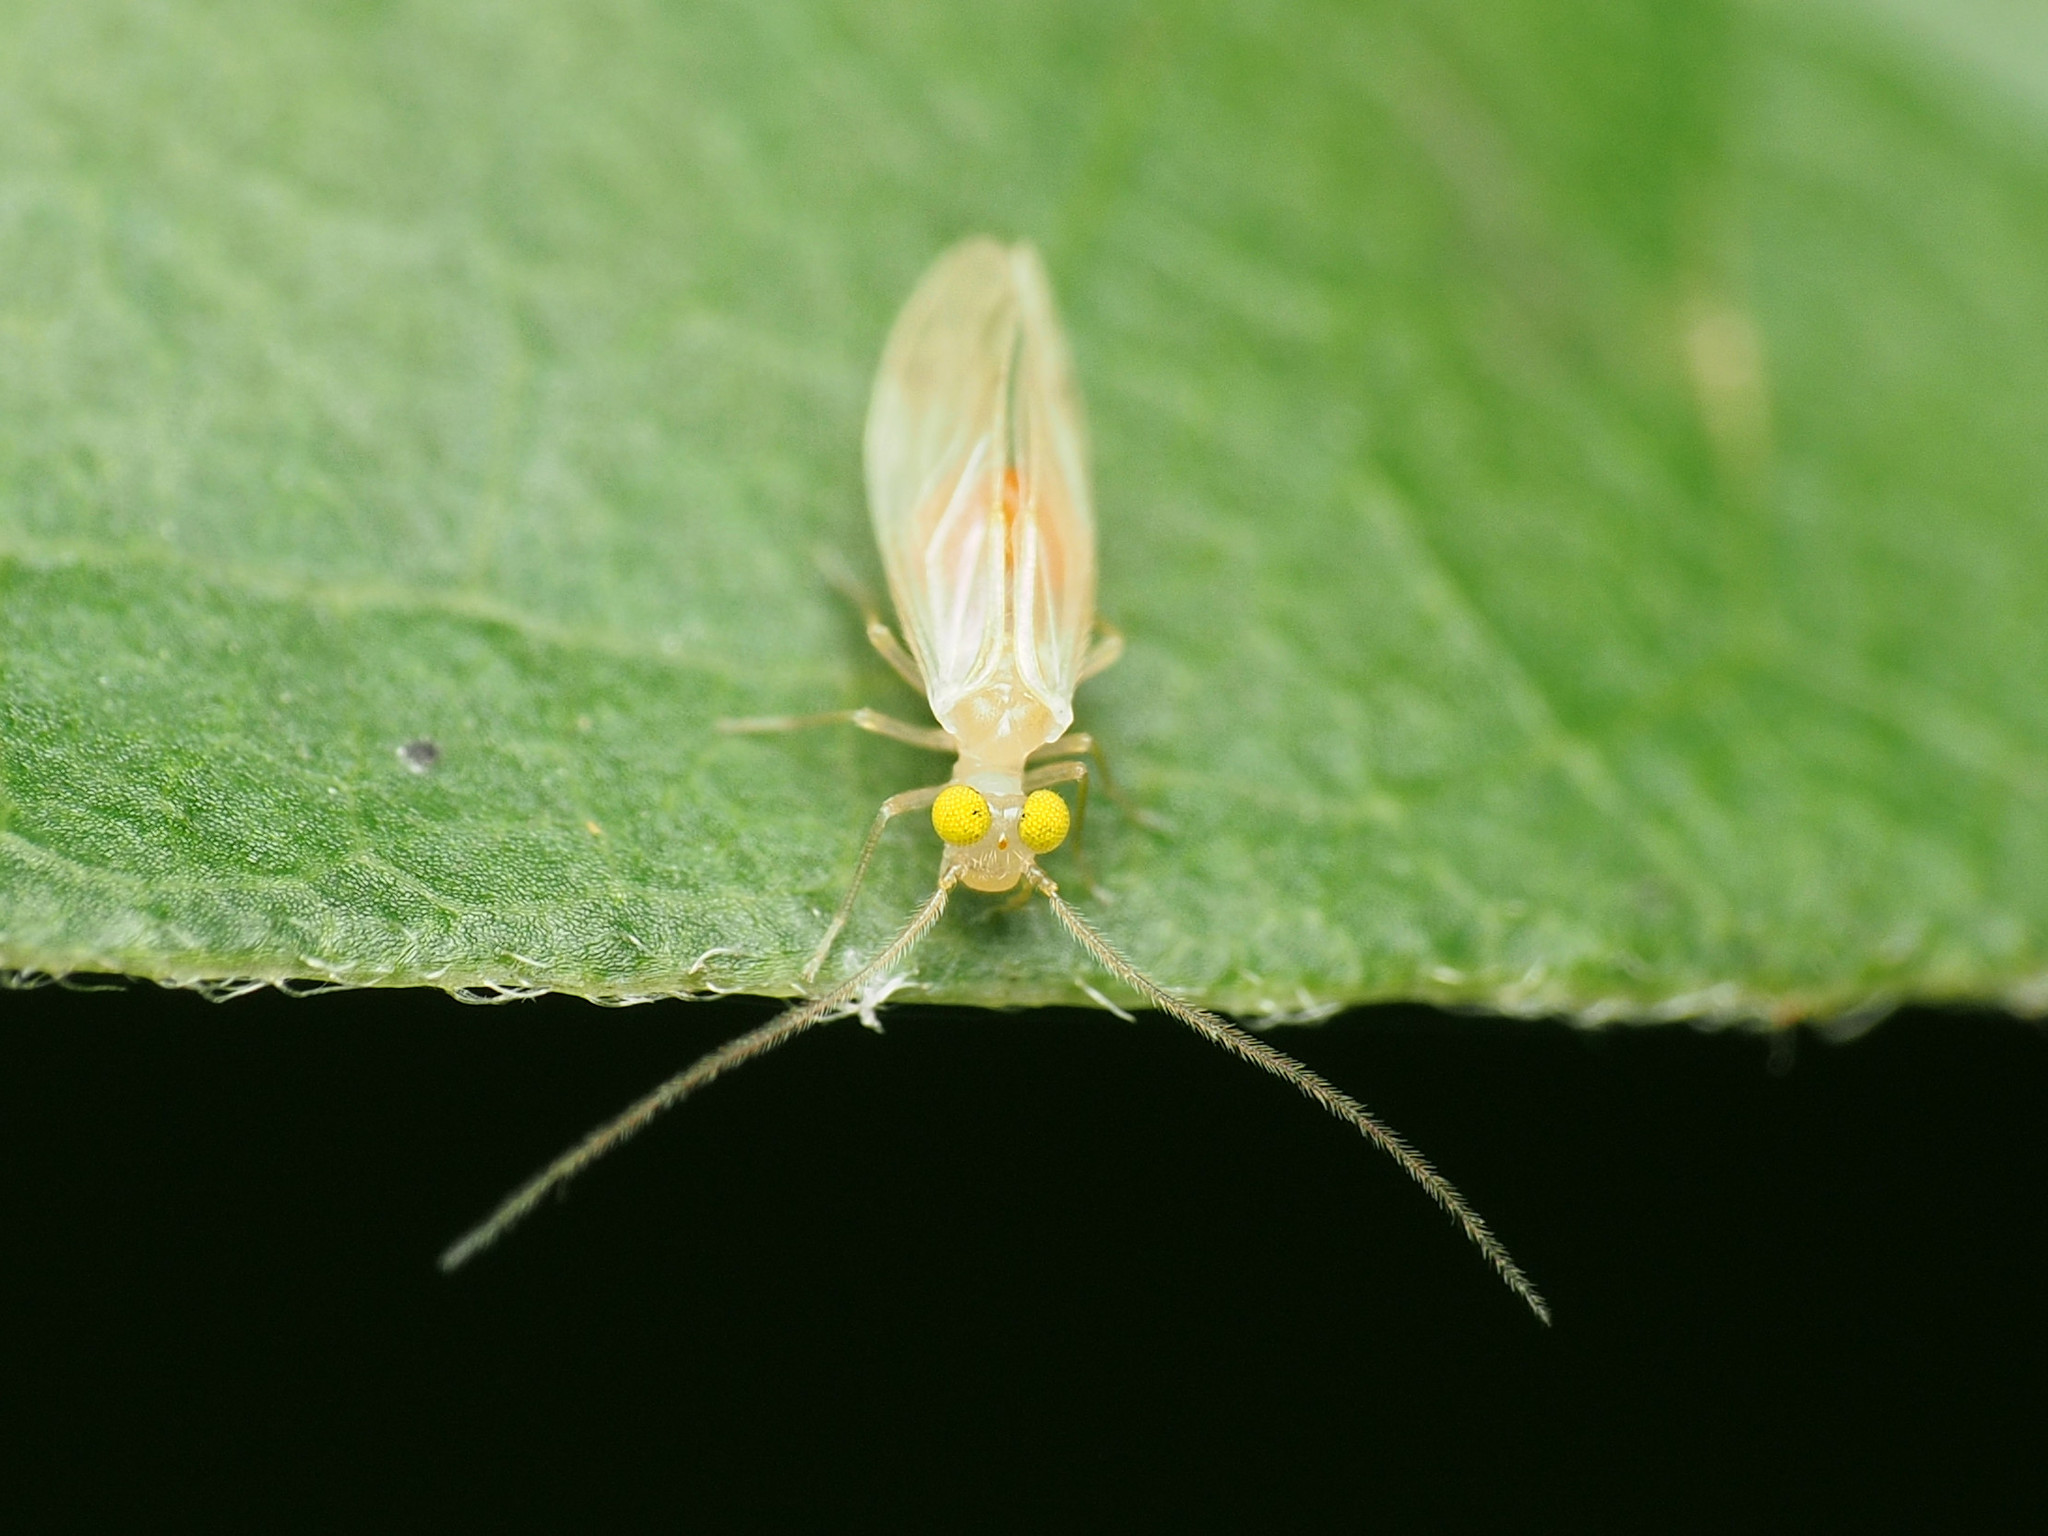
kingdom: Animalia
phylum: Arthropoda
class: Insecta
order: Psocodea
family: Paracaeciliidae
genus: Xanthocaecilius
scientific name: Xanthocaecilius sommermanae
